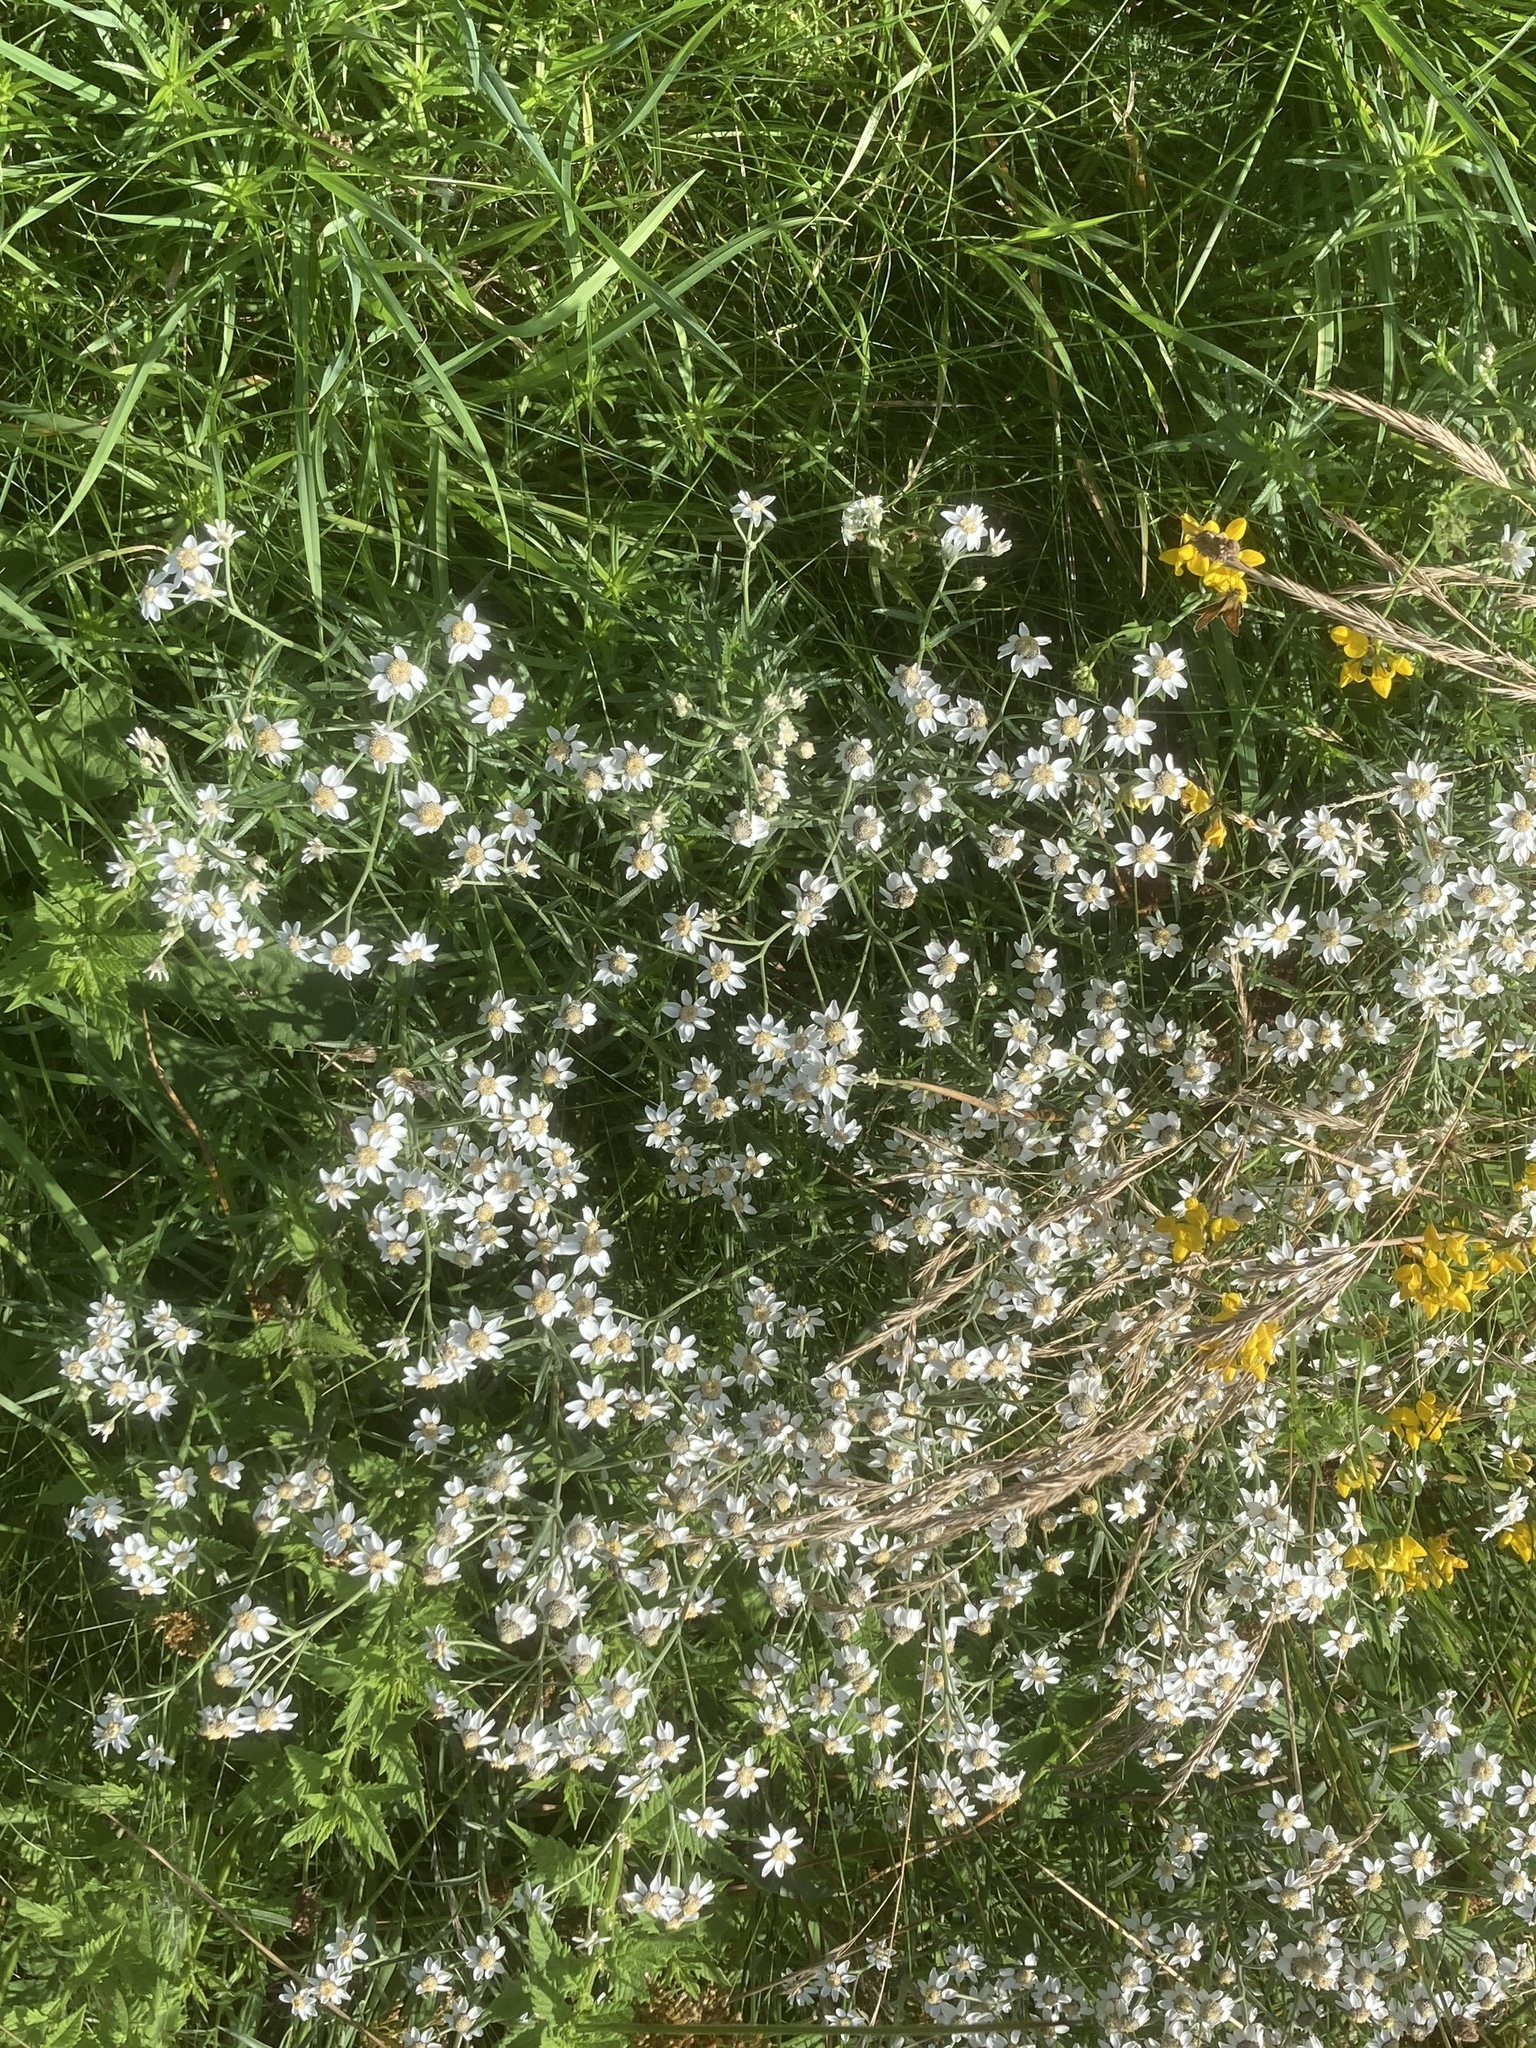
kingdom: Plantae
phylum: Tracheophyta
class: Magnoliopsida
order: Asterales
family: Asteraceae
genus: Achillea
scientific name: Achillea ptarmica
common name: Sneezeweed
